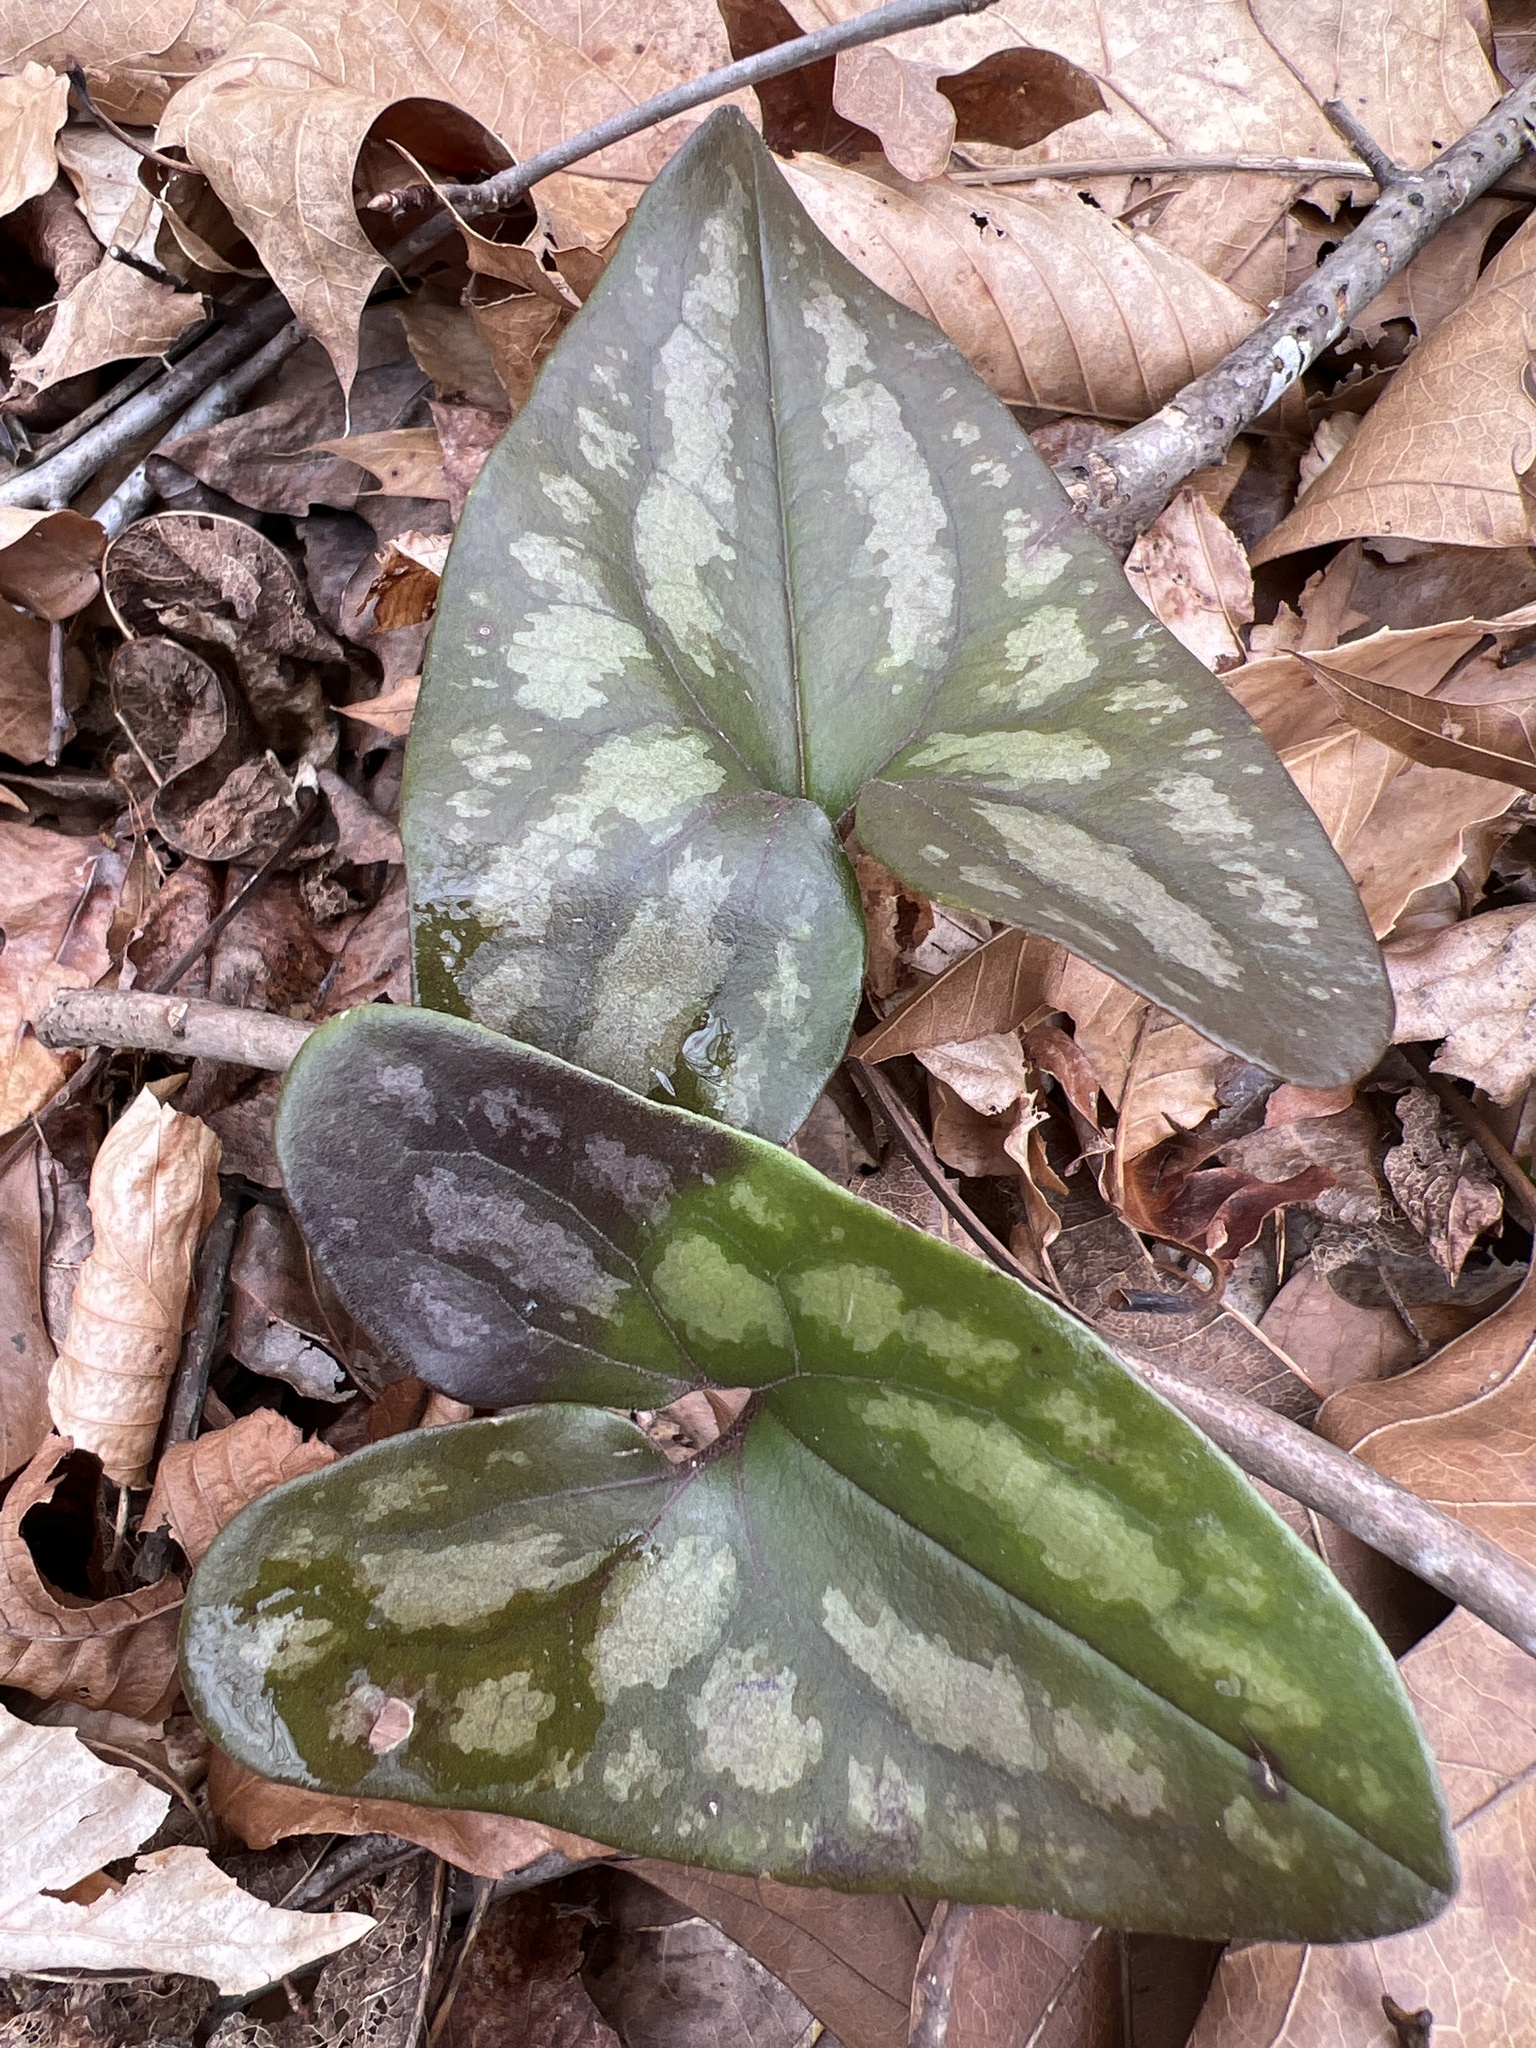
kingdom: Plantae
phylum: Tracheophyta
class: Magnoliopsida
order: Piperales
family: Aristolochiaceae
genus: Hexastylis
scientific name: Hexastylis arifolia
